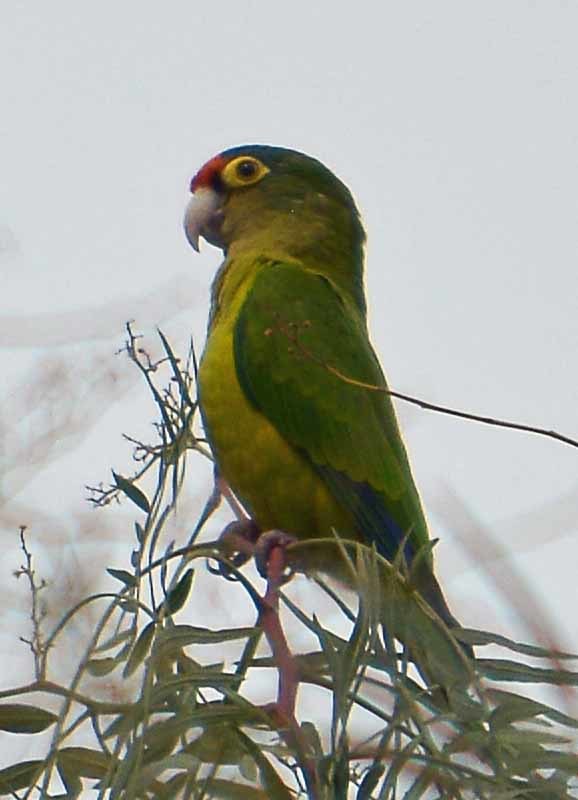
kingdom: Animalia
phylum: Chordata
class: Aves
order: Psittaciformes
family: Psittacidae
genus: Aratinga
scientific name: Aratinga canicularis
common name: Orange-fronted parakeet
